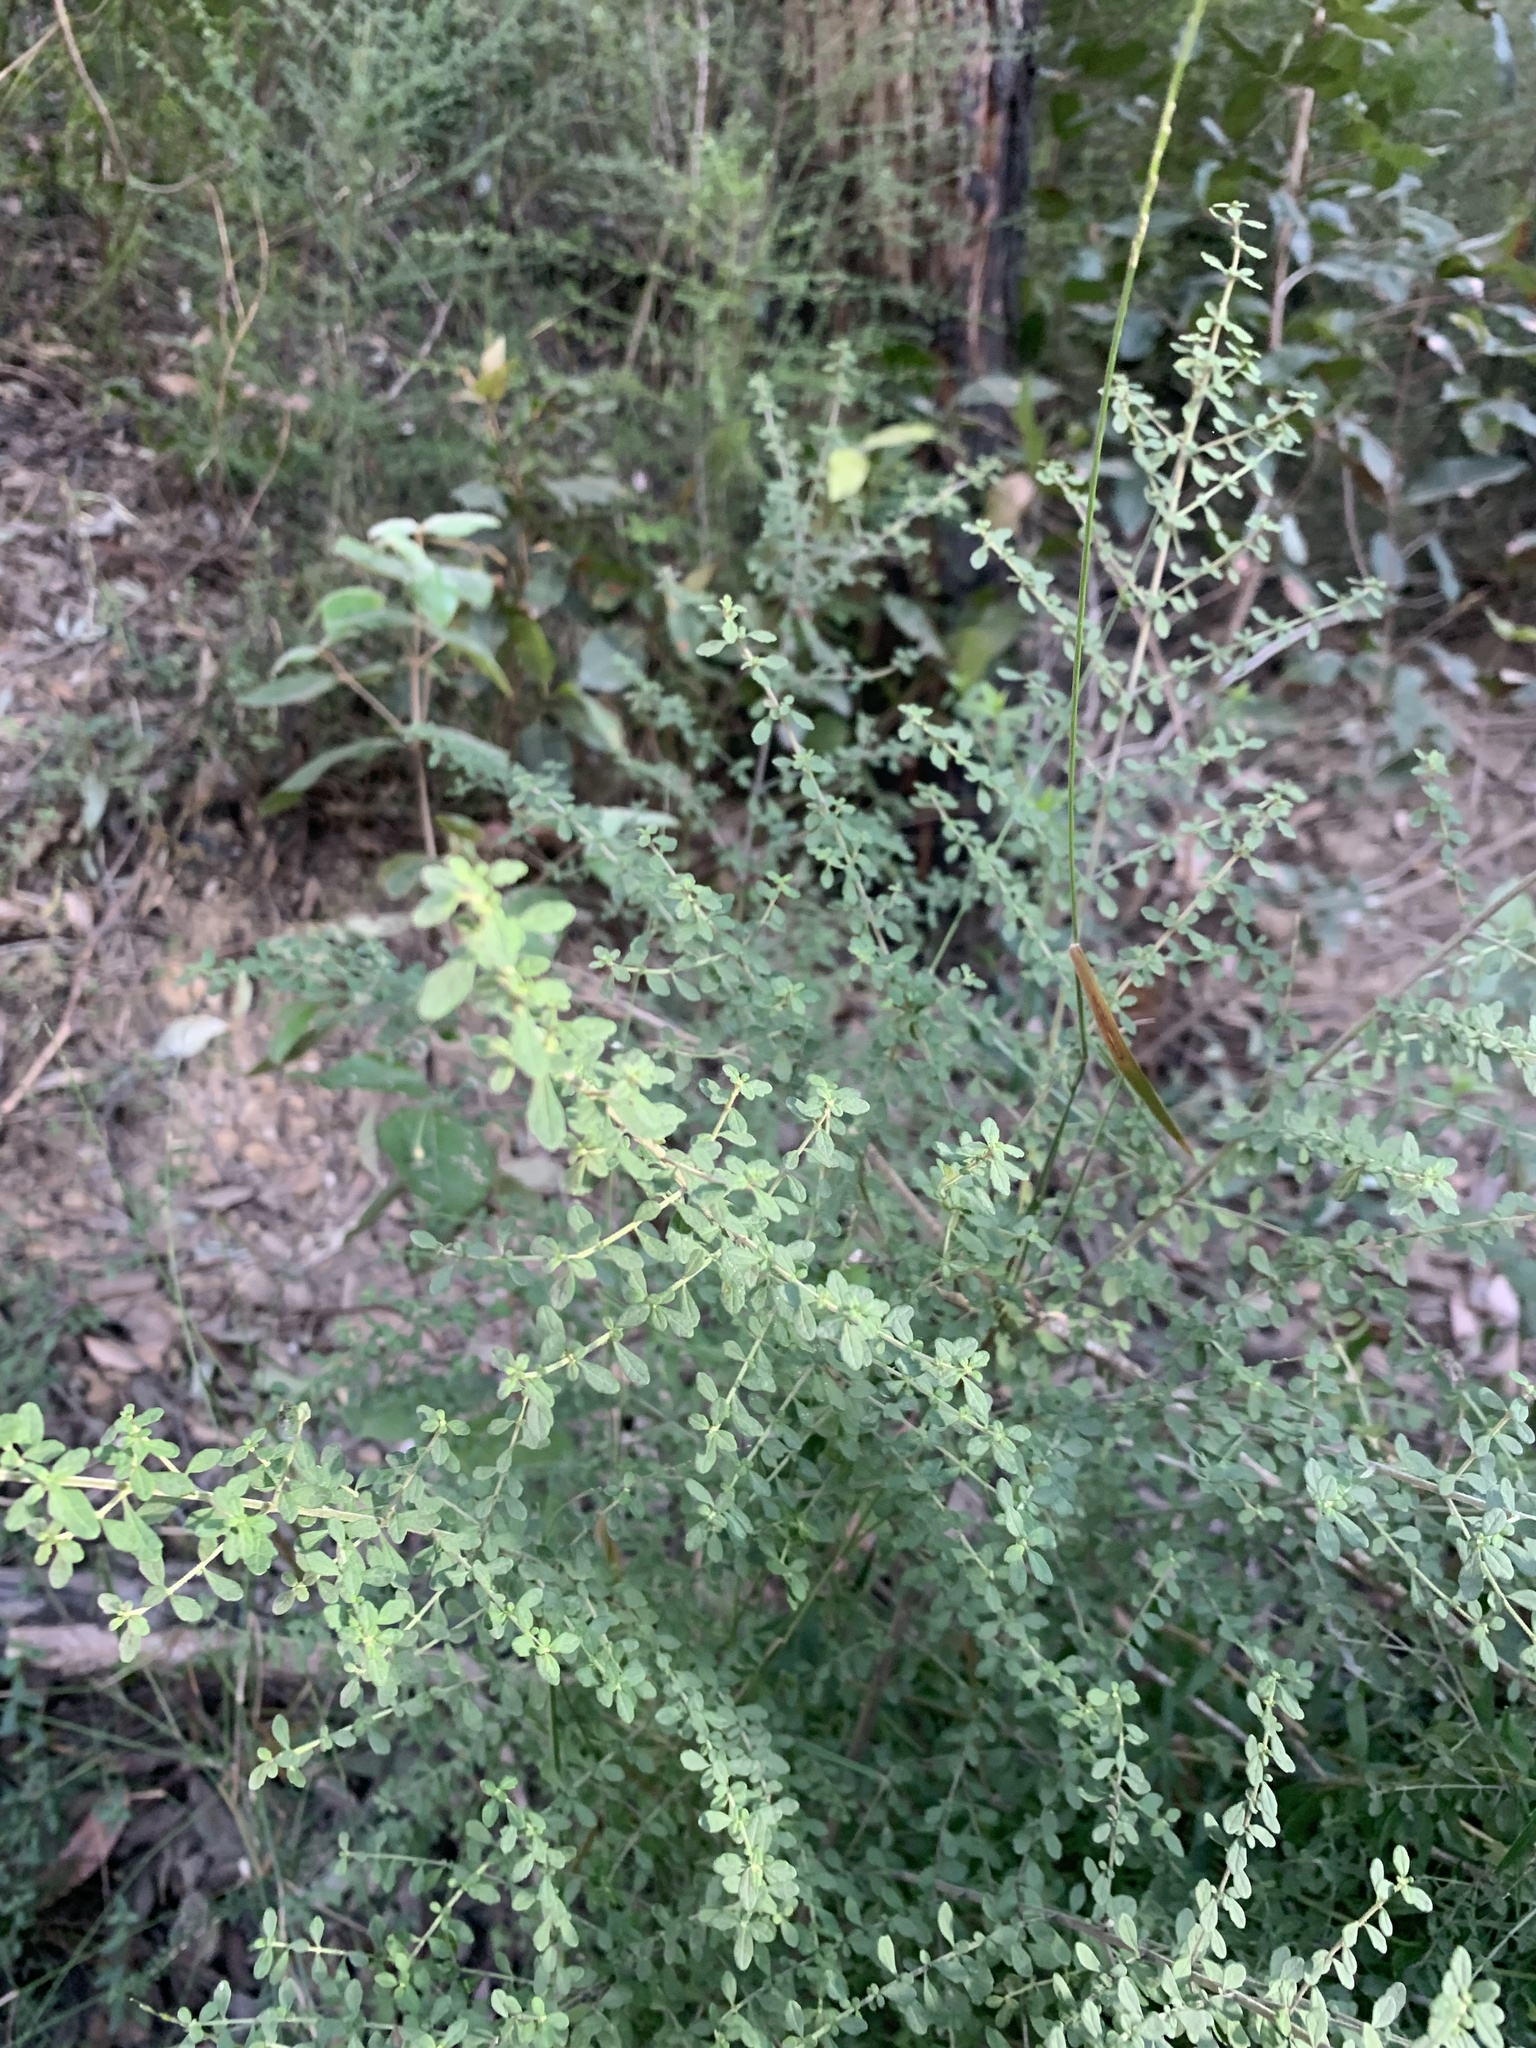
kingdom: Plantae
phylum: Tracheophyta
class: Magnoliopsida
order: Lamiales
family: Lamiaceae
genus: Prostanthera
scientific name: Prostanthera violacea
